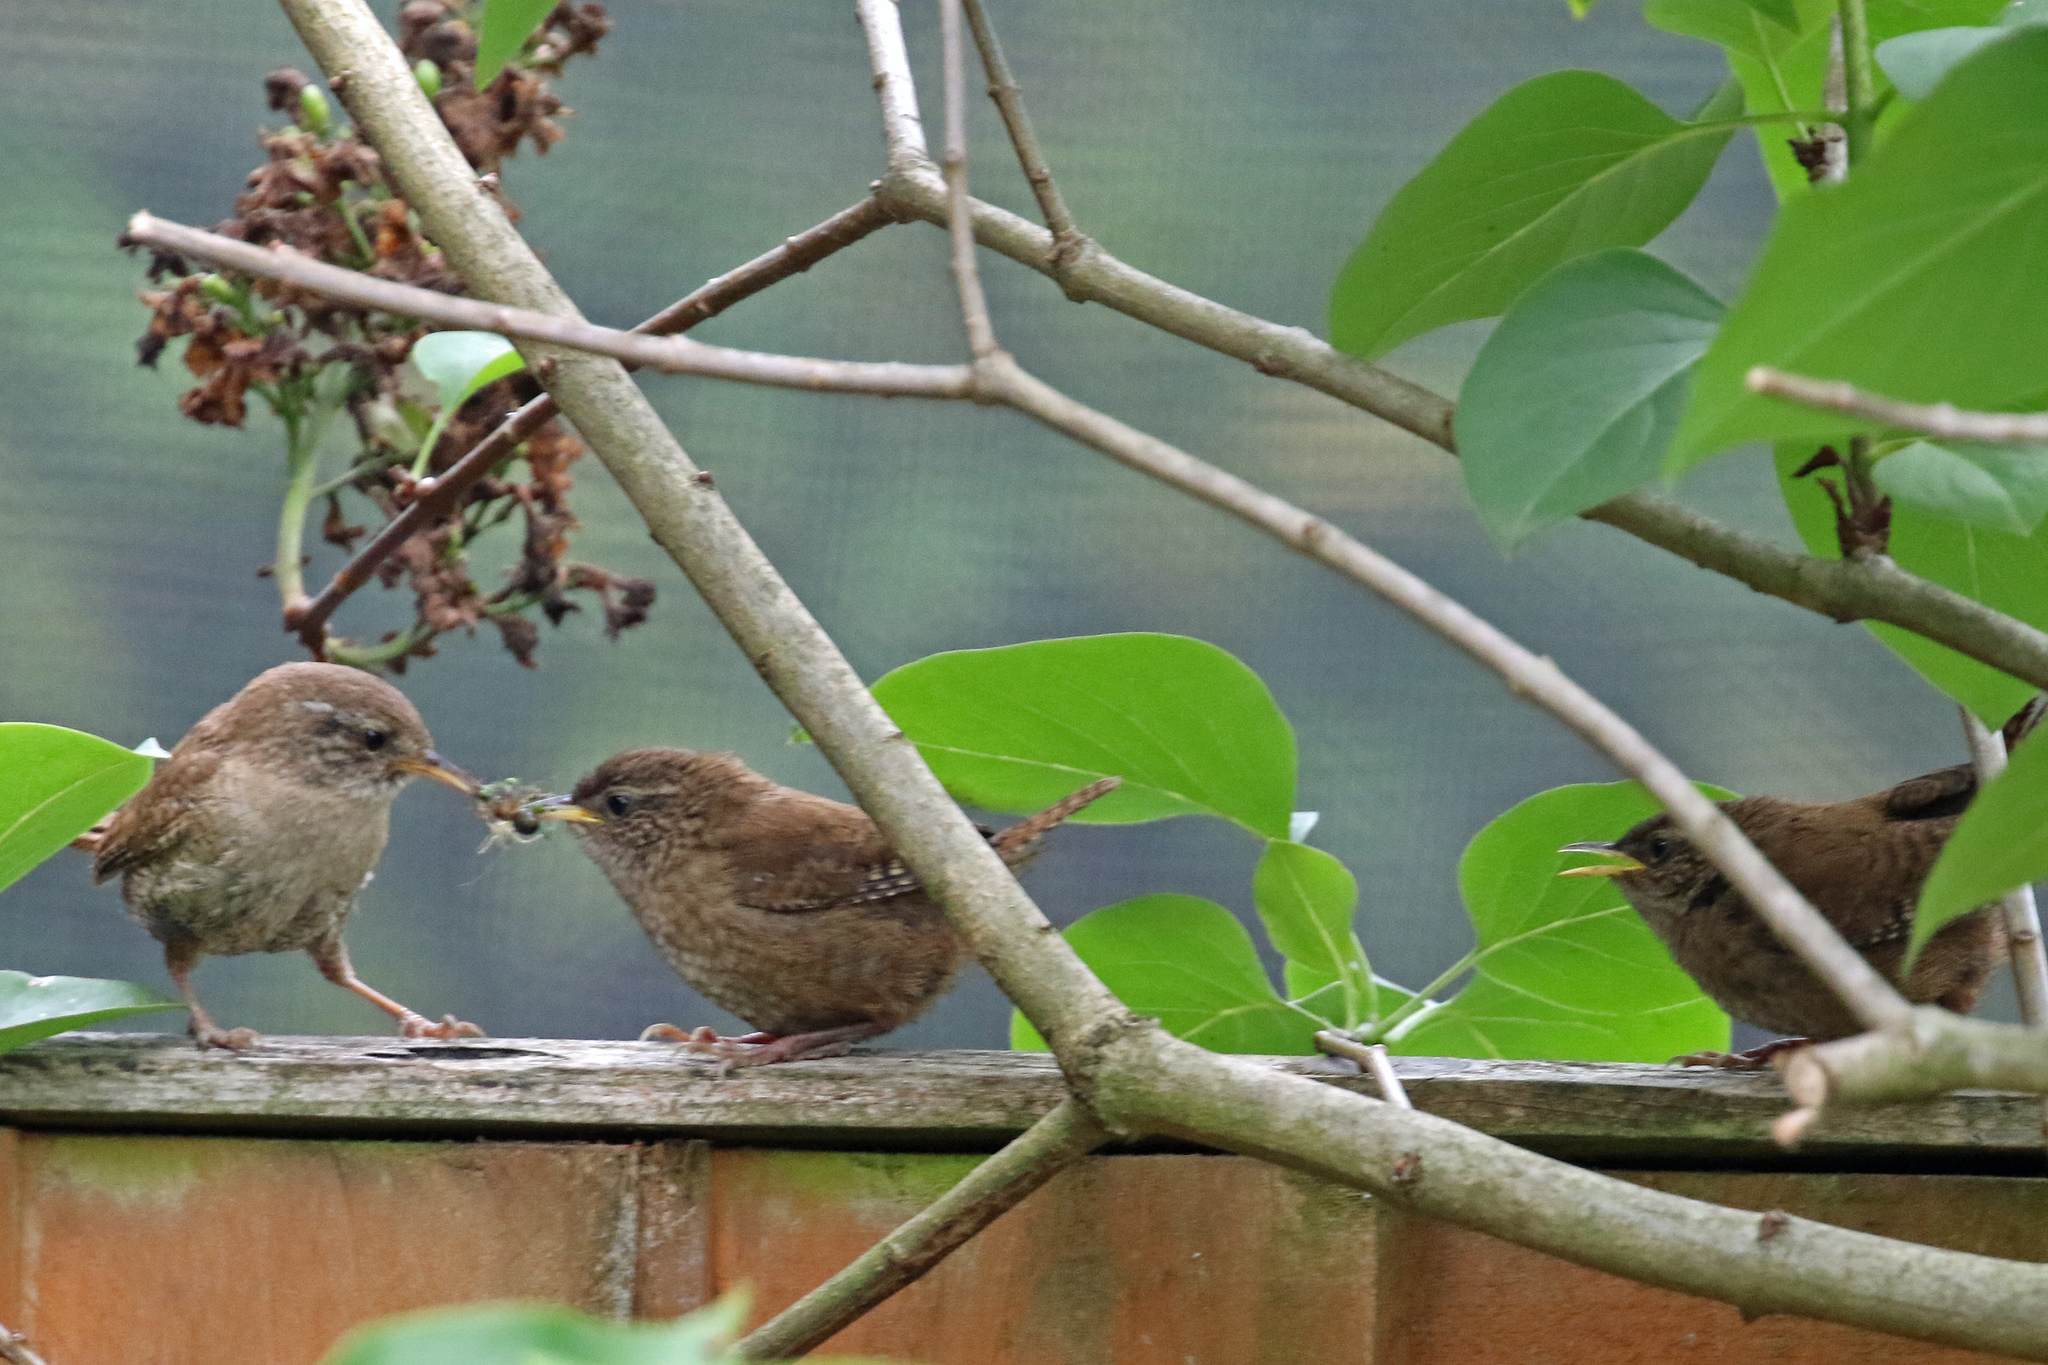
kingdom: Animalia
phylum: Chordata
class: Aves
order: Passeriformes
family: Troglodytidae
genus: Troglodytes
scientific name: Troglodytes troglodytes
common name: Eurasian wren
